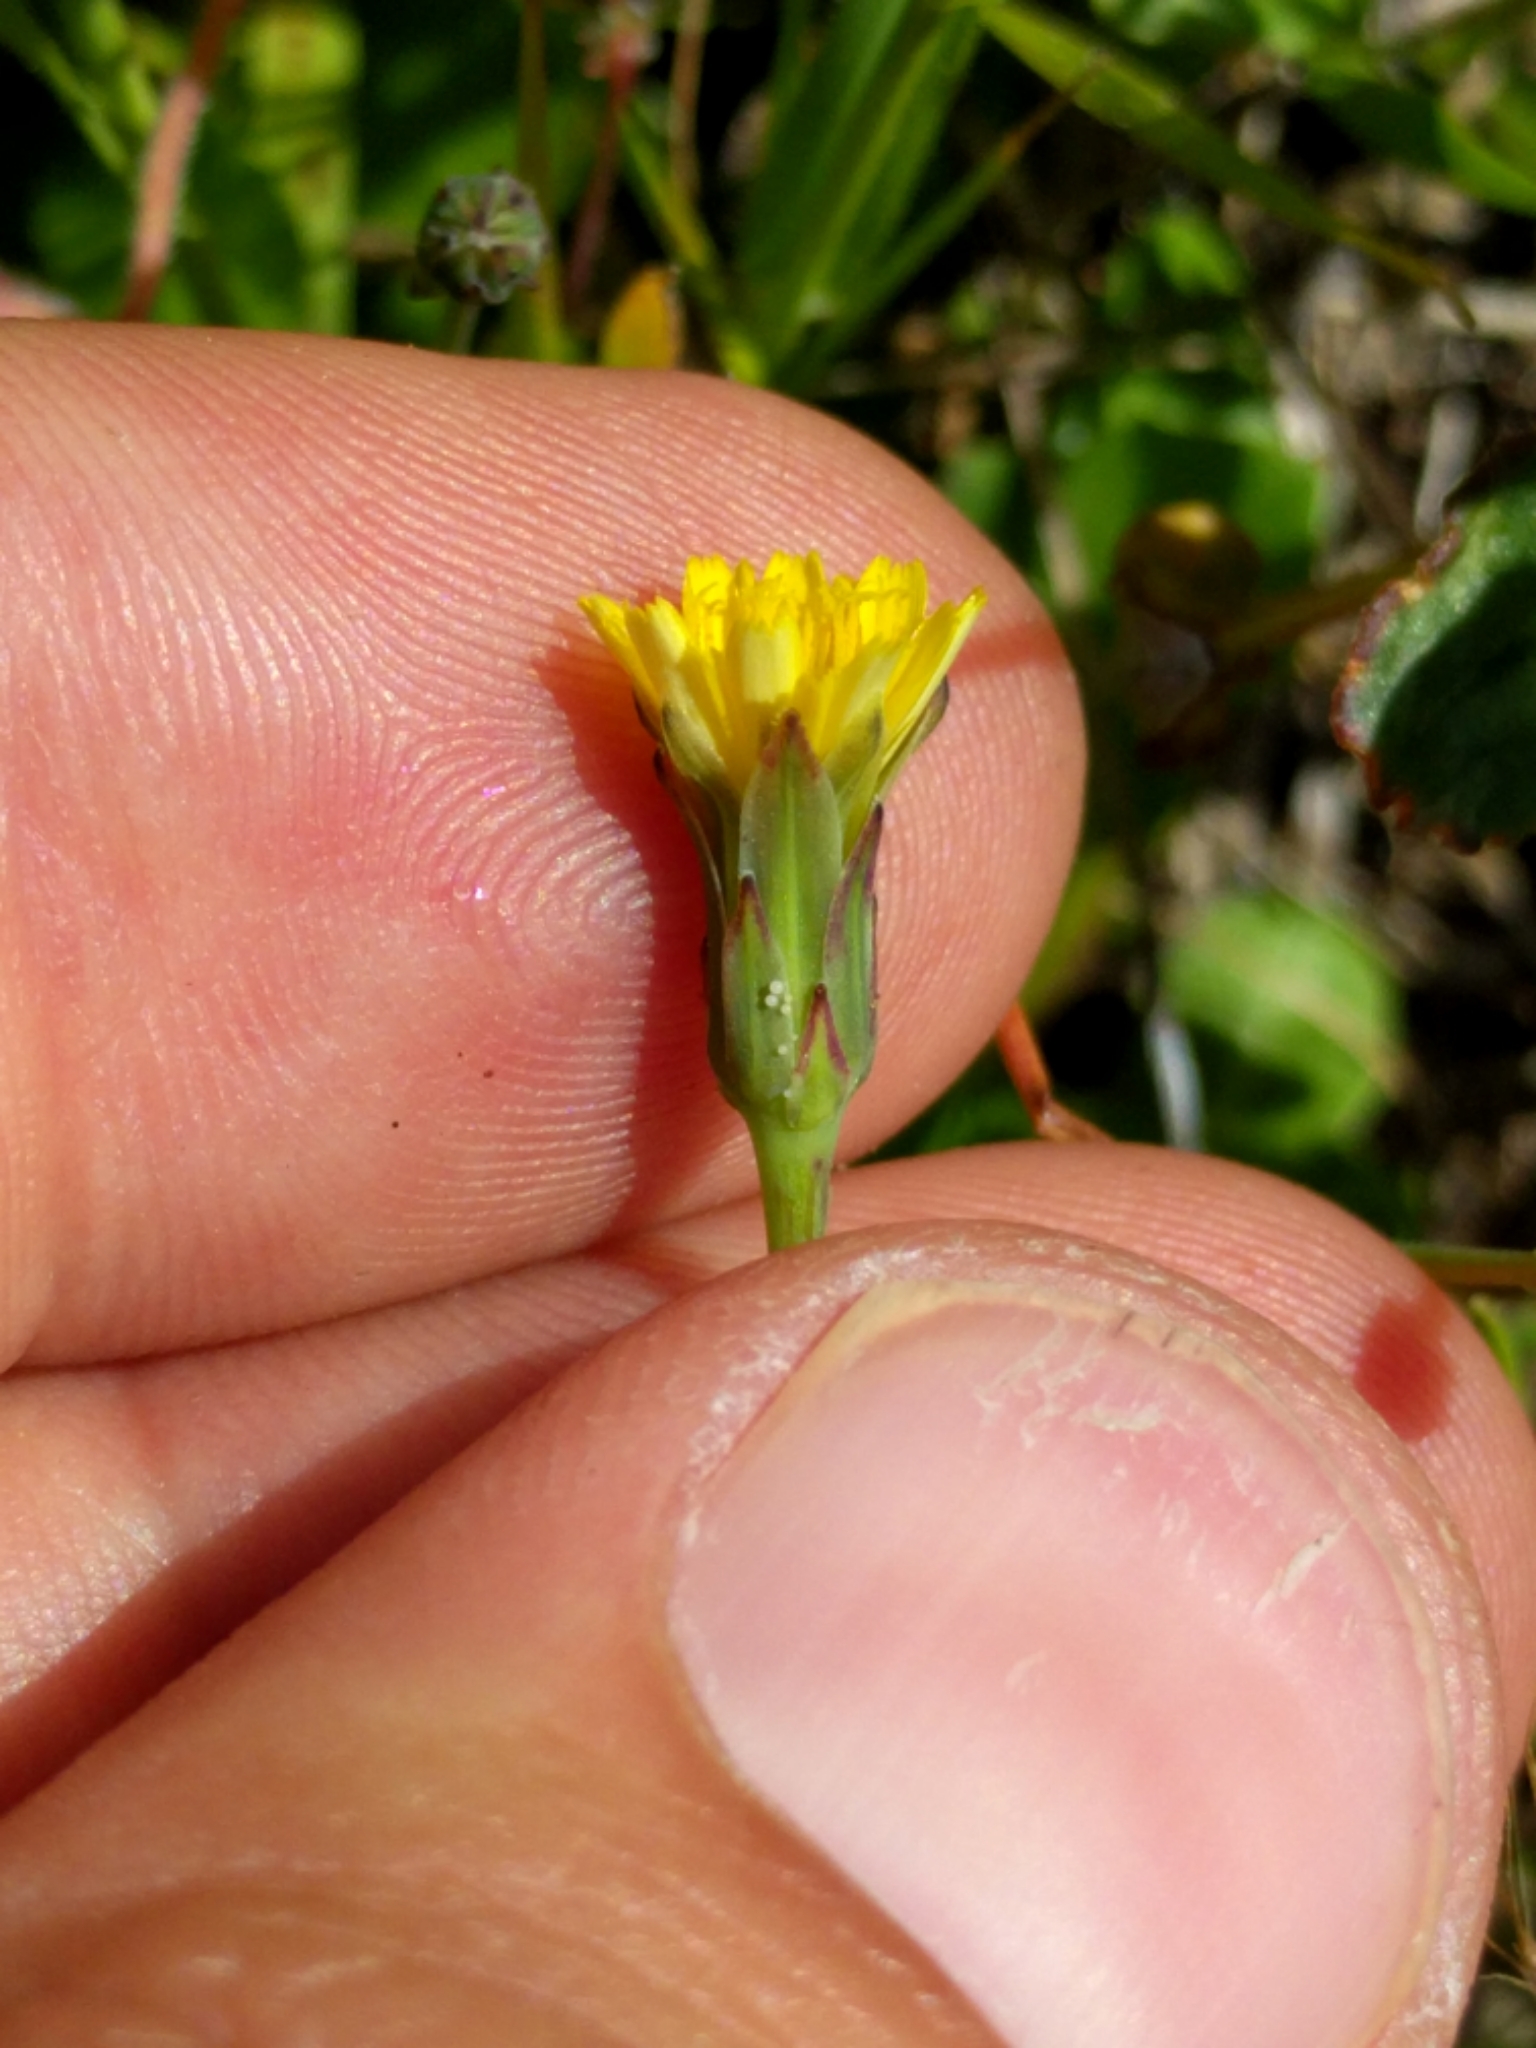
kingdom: Plantae
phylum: Tracheophyta
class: Magnoliopsida
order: Asterales
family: Asteraceae
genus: Hypochaeris
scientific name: Hypochaeris glabra
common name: Smooth catsear
